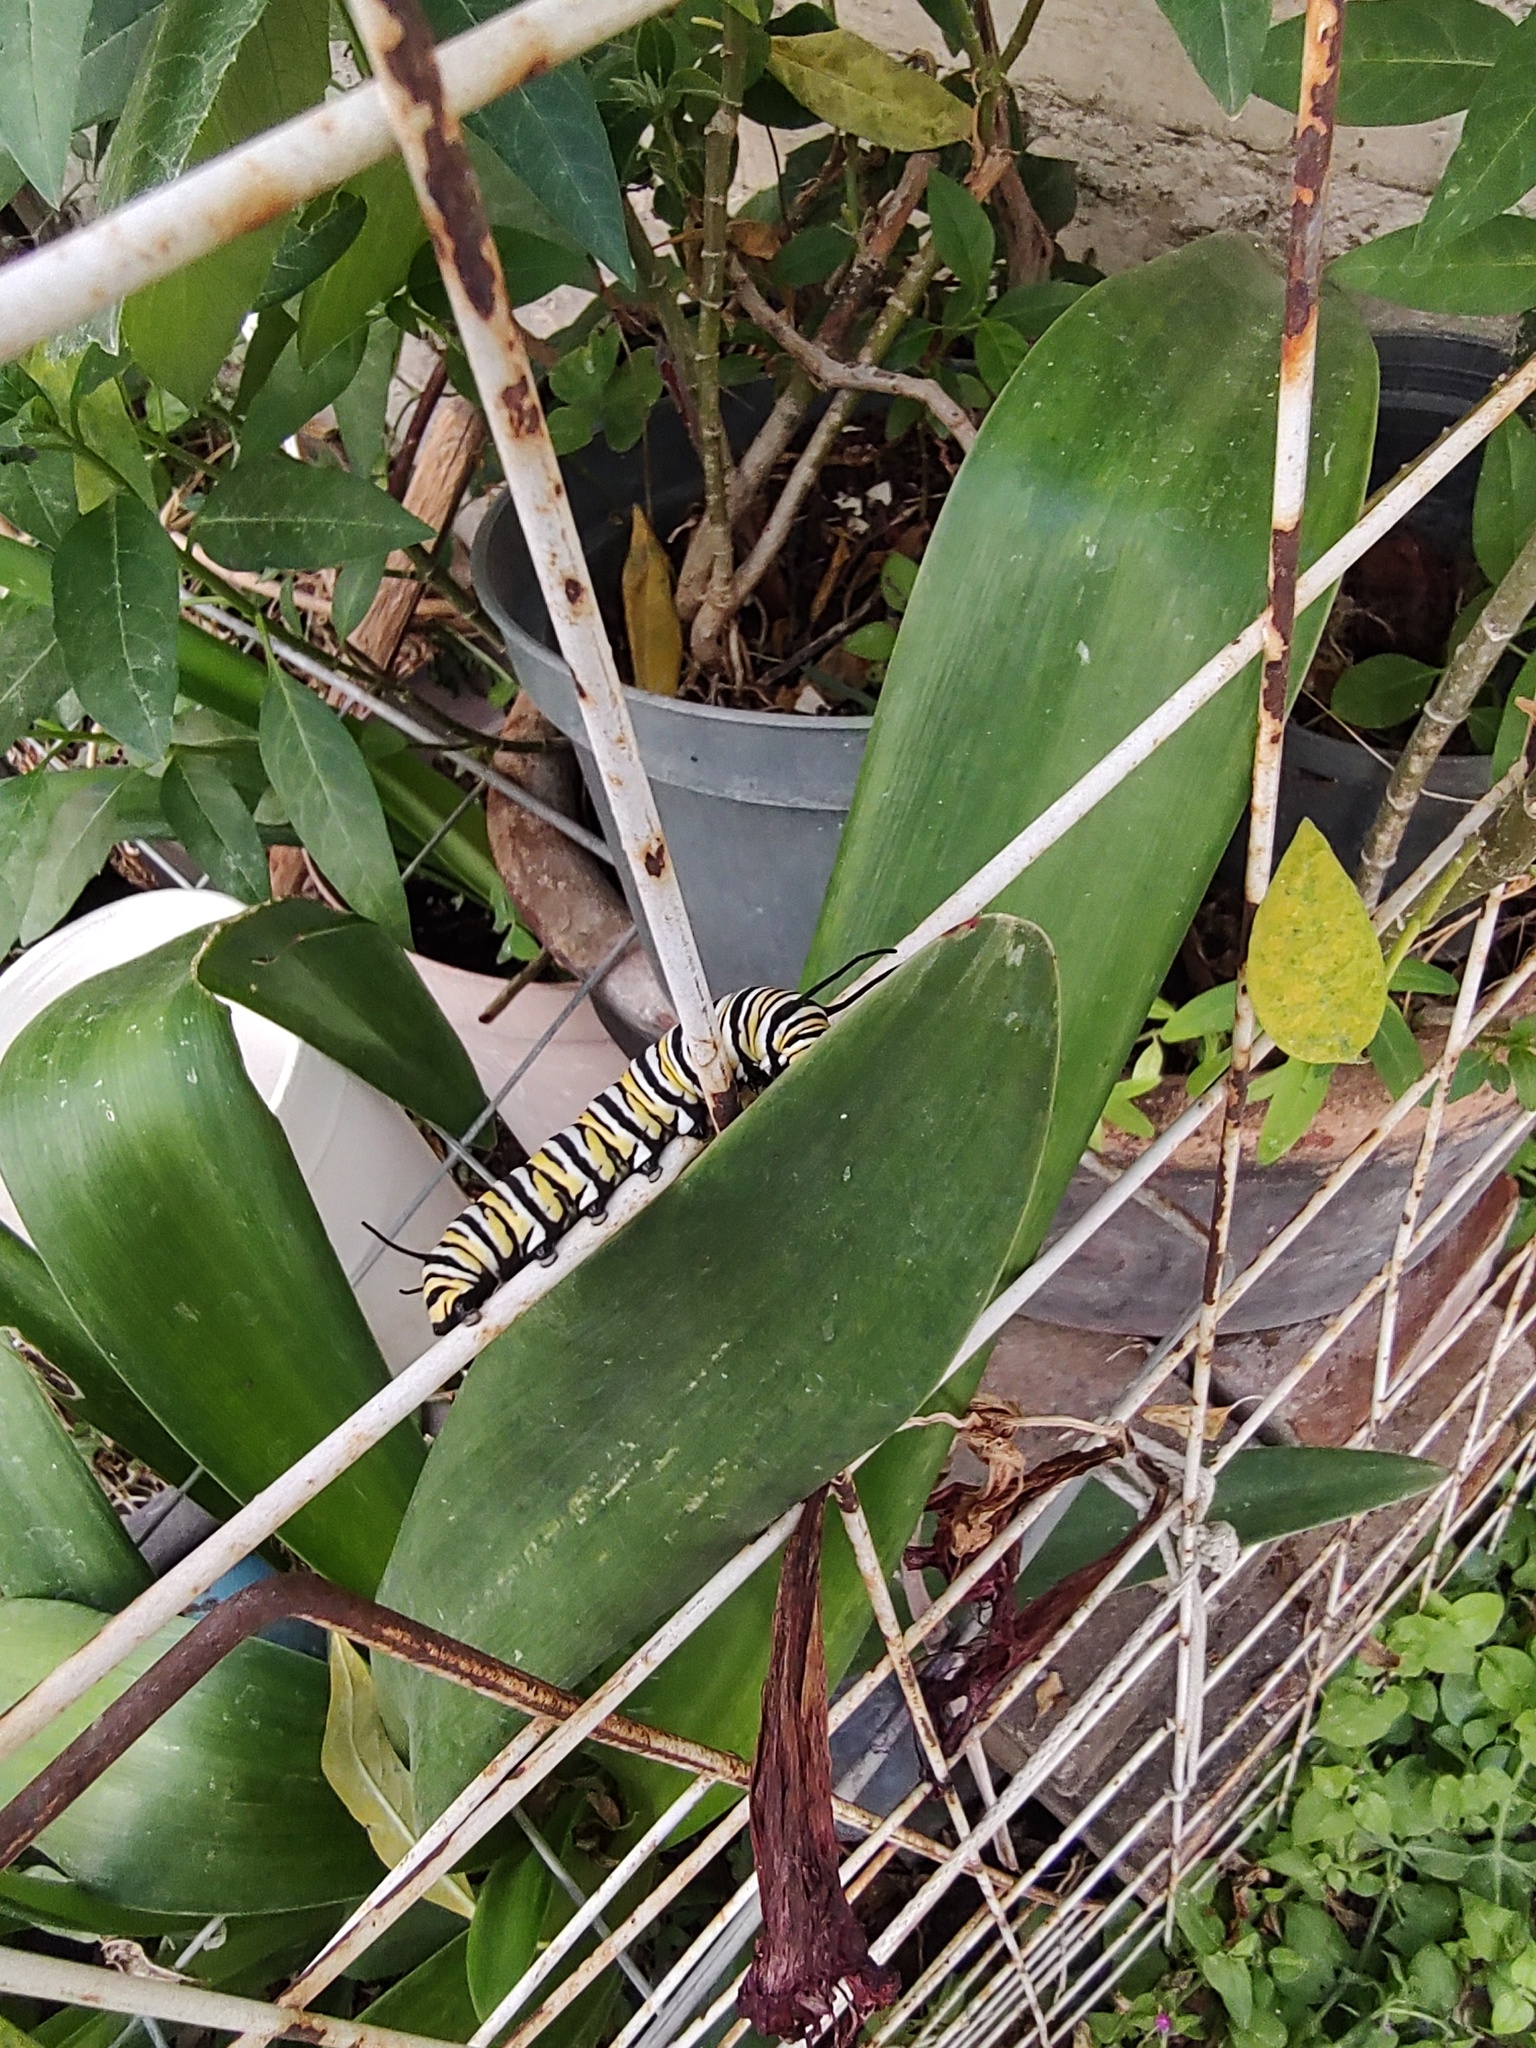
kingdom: Animalia
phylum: Arthropoda
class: Insecta
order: Lepidoptera
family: Nymphalidae
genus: Danaus
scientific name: Danaus plexippus
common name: Monarch
